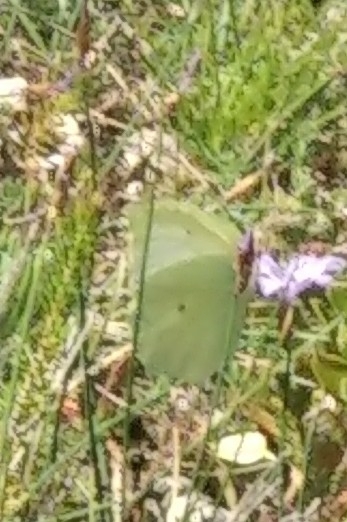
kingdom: Animalia
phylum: Arthropoda
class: Insecta
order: Lepidoptera
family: Pieridae
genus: Gonepteryx
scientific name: Gonepteryx rhamni
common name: Brimstone
